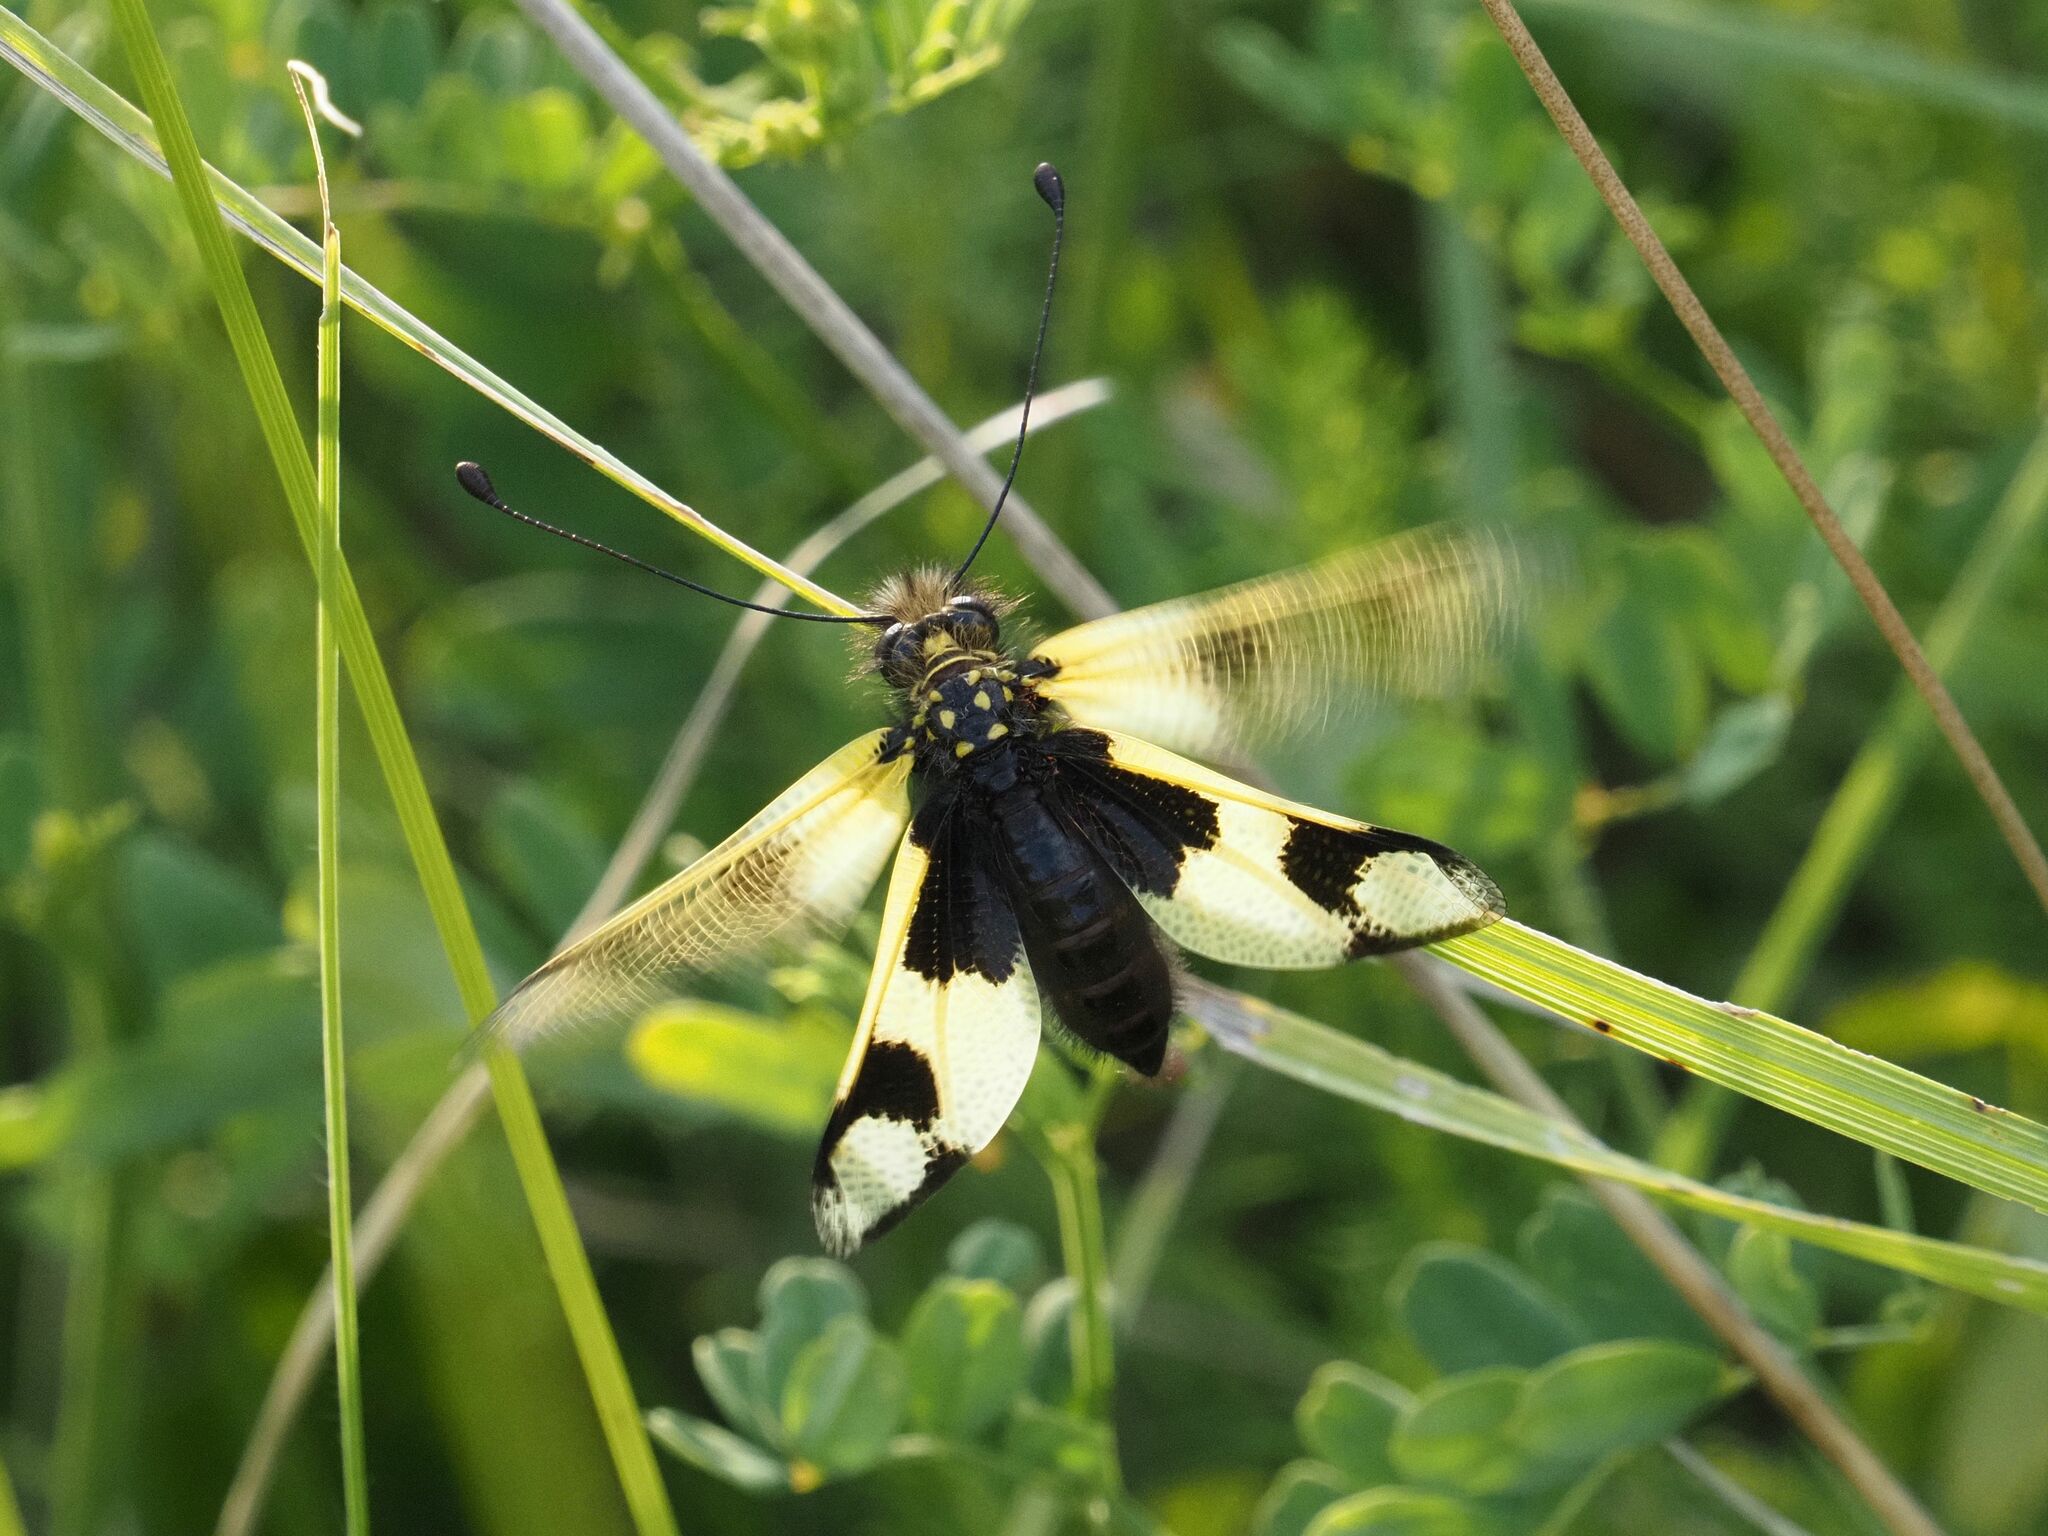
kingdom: Animalia
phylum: Arthropoda
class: Insecta
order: Neuroptera
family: Ascalaphidae
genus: Libelloides
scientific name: Libelloides macaronius
